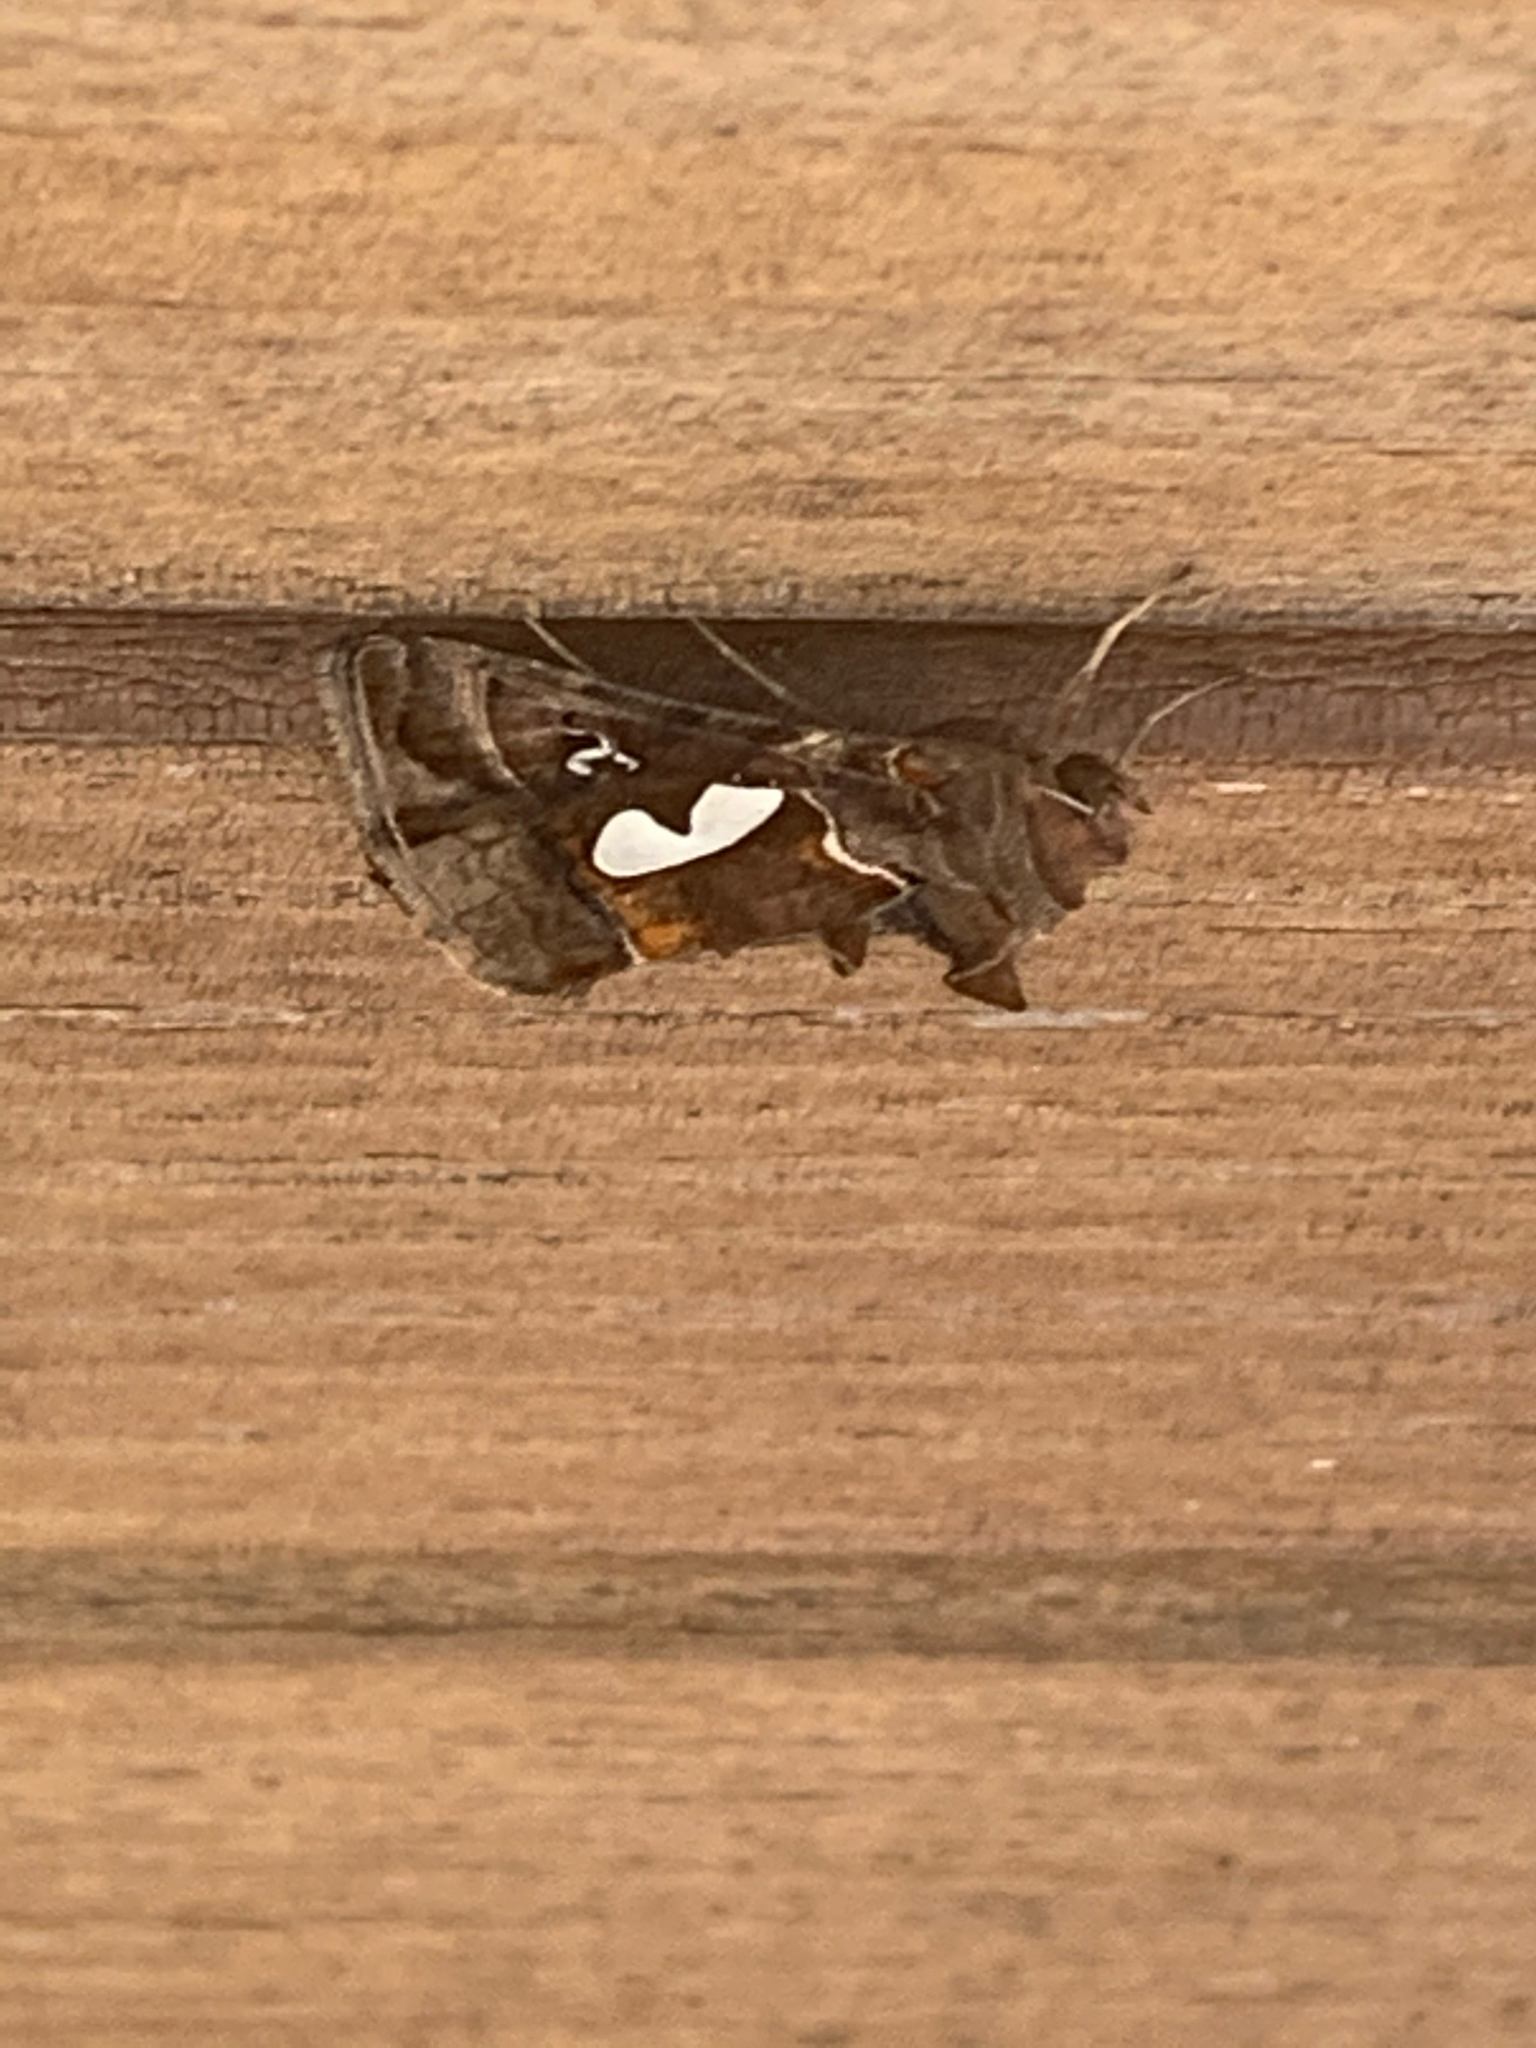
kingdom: Animalia
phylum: Arthropoda
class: Insecta
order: Lepidoptera
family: Noctuidae
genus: Megalographa
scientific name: Megalographa biloba
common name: Cutworm
